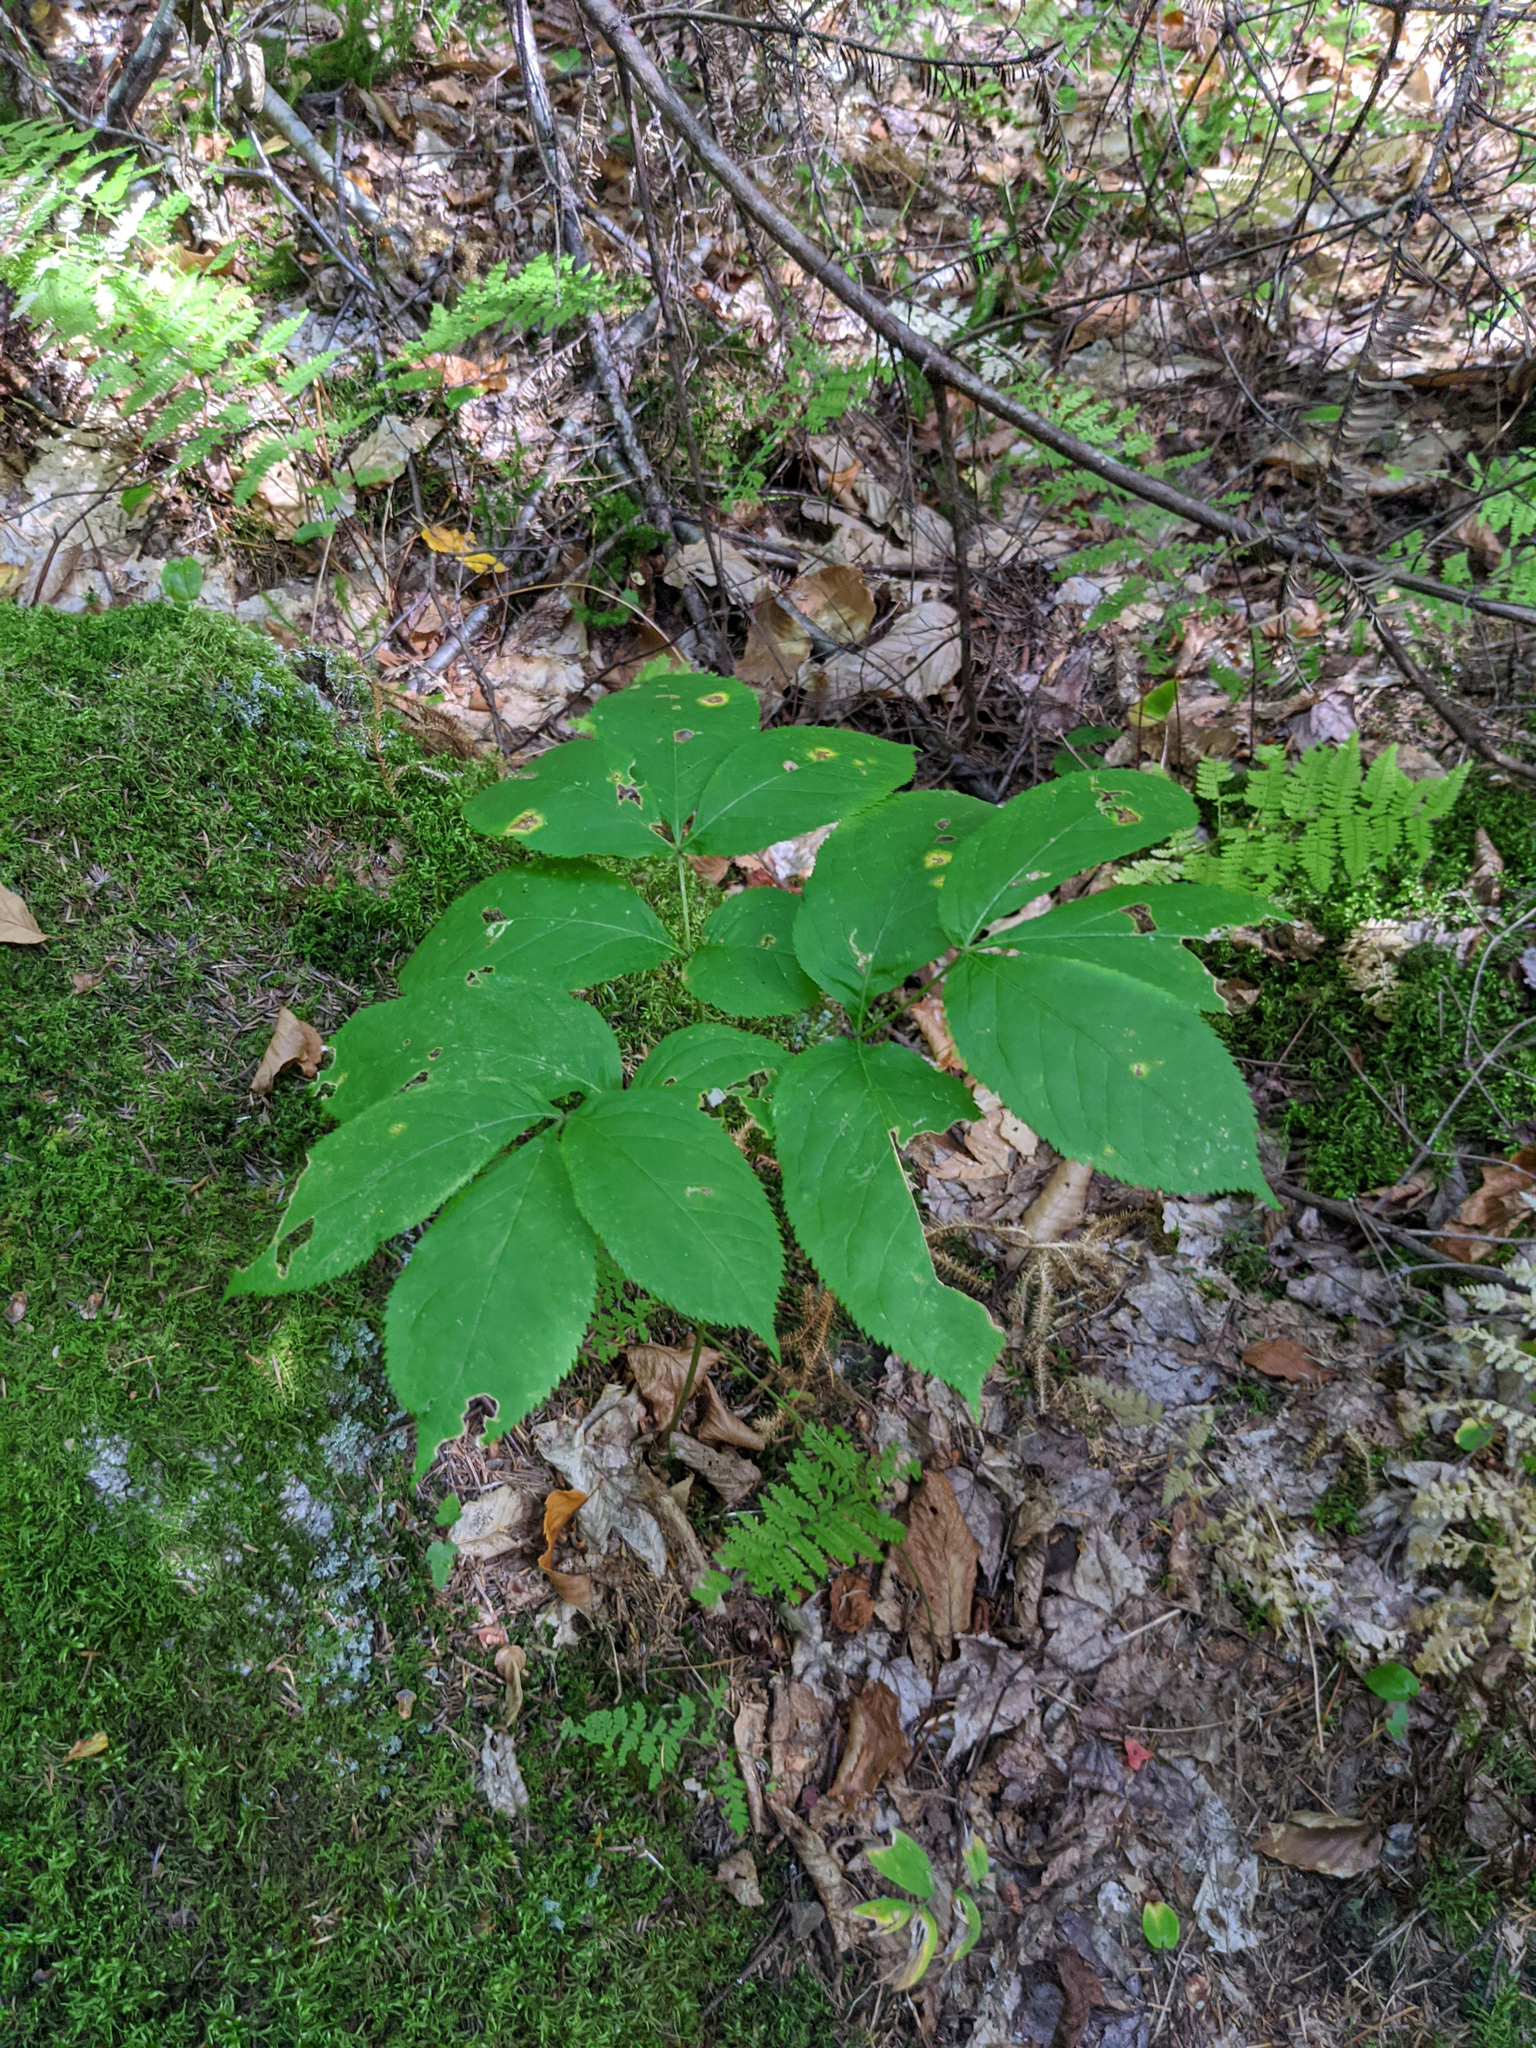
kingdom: Plantae
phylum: Tracheophyta
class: Magnoliopsida
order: Apiales
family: Araliaceae
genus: Aralia
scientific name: Aralia nudicaulis
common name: Wild sarsaparilla
